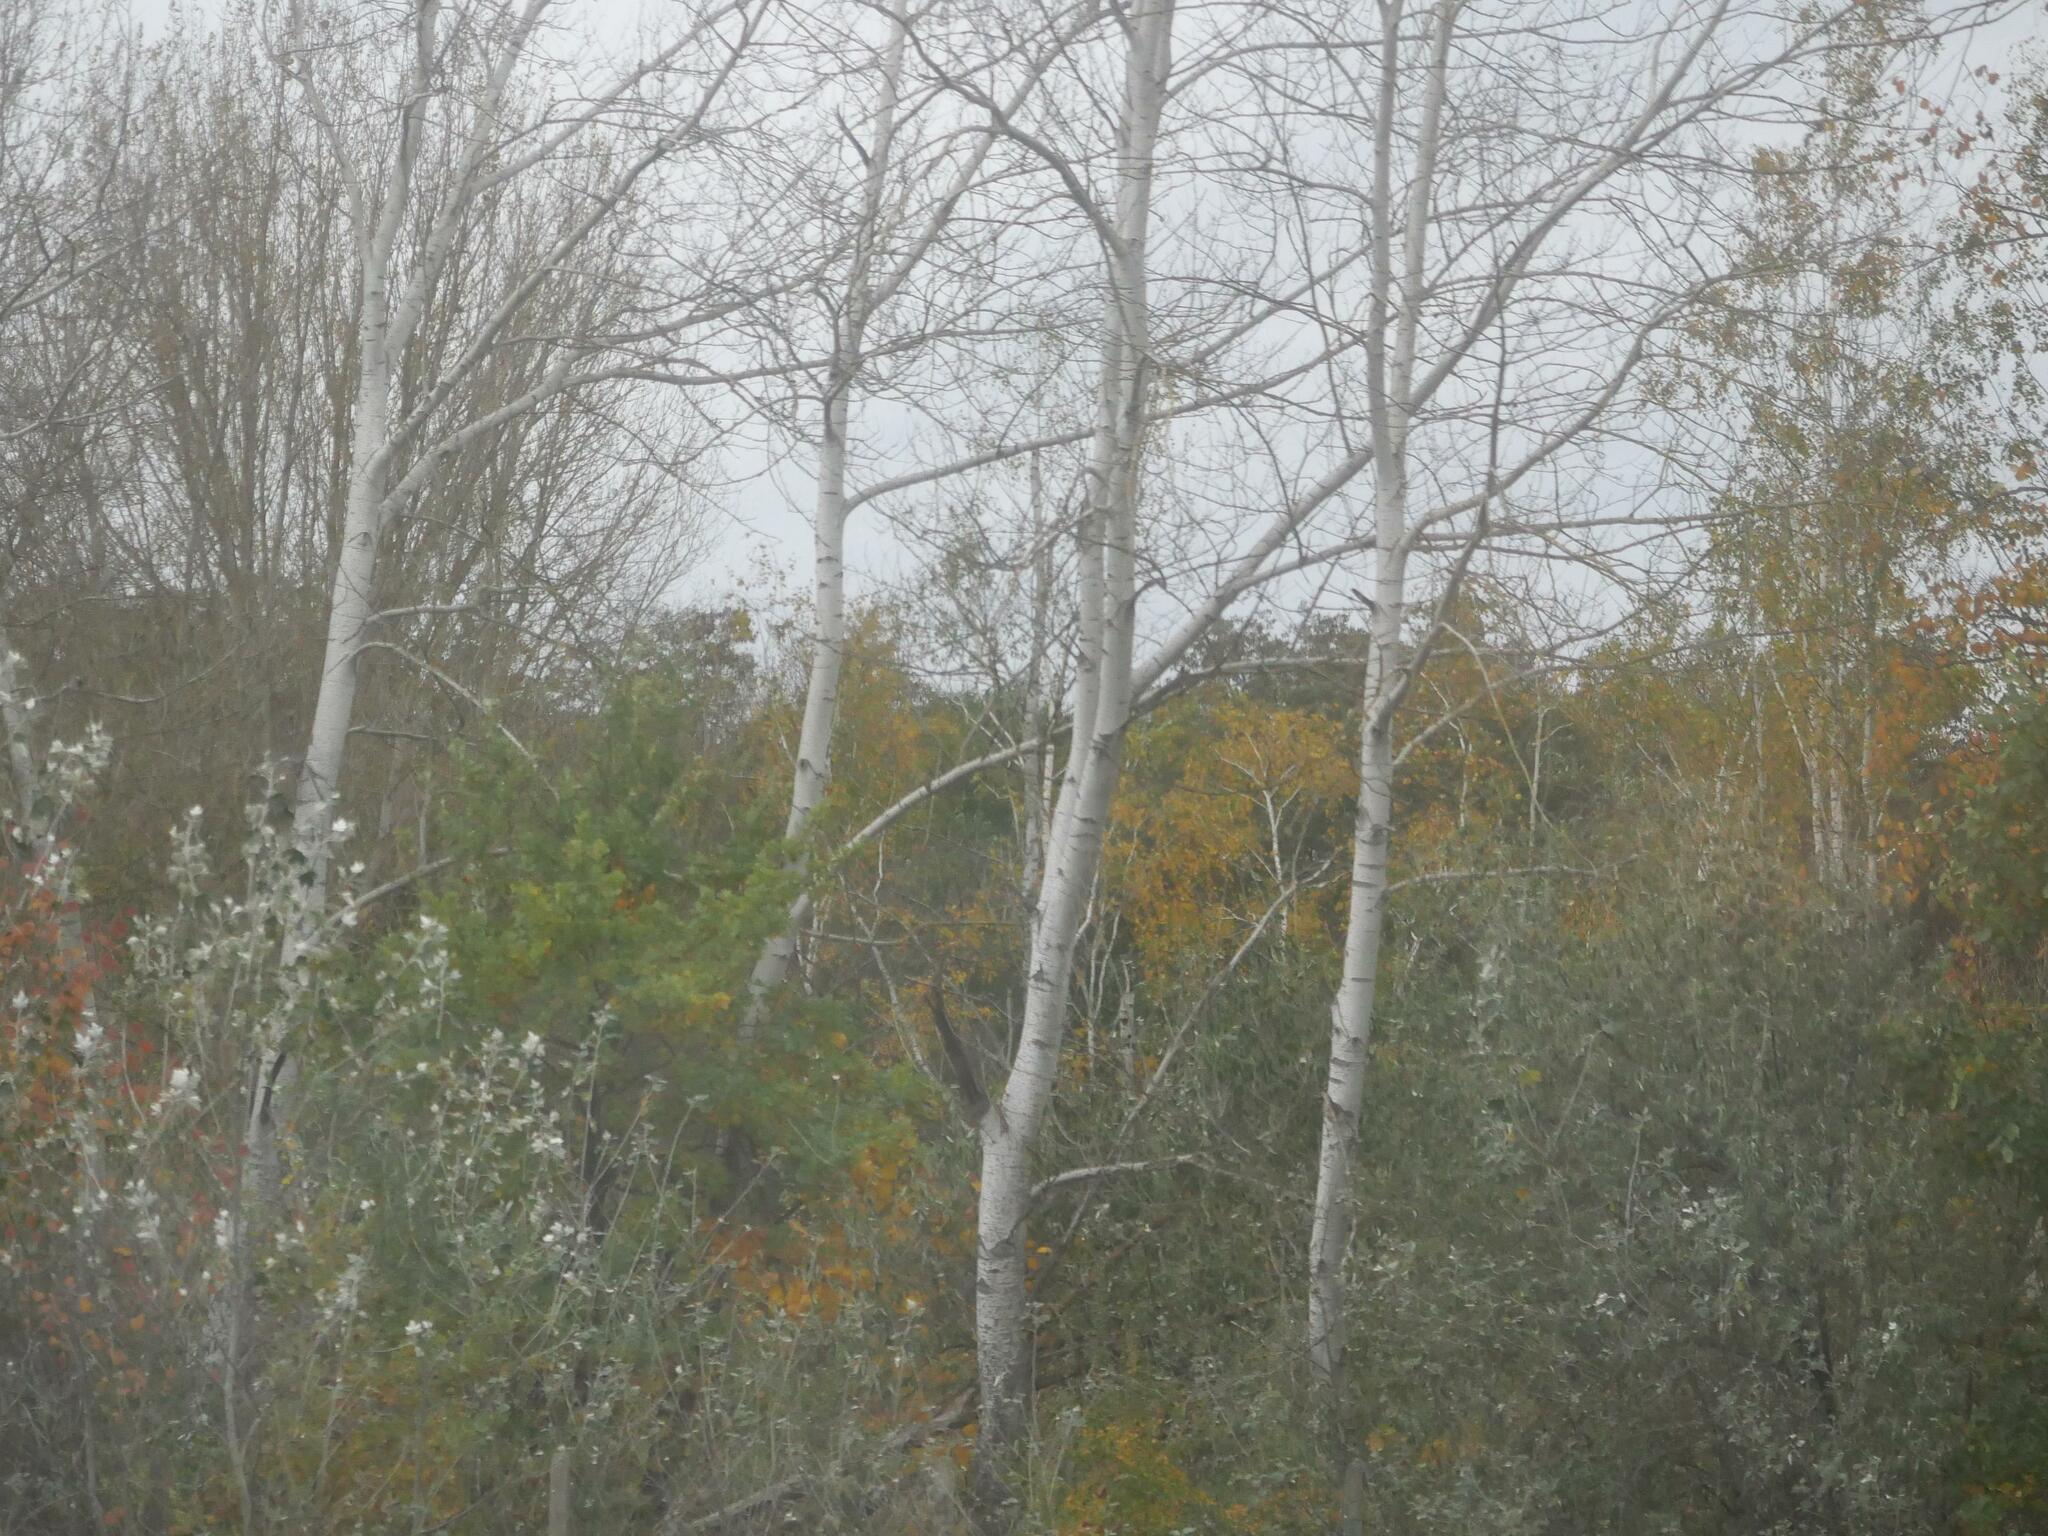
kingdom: Plantae
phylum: Tracheophyta
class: Magnoliopsida
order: Fagales
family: Betulaceae
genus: Betula
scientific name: Betula pendula
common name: Silver birch
